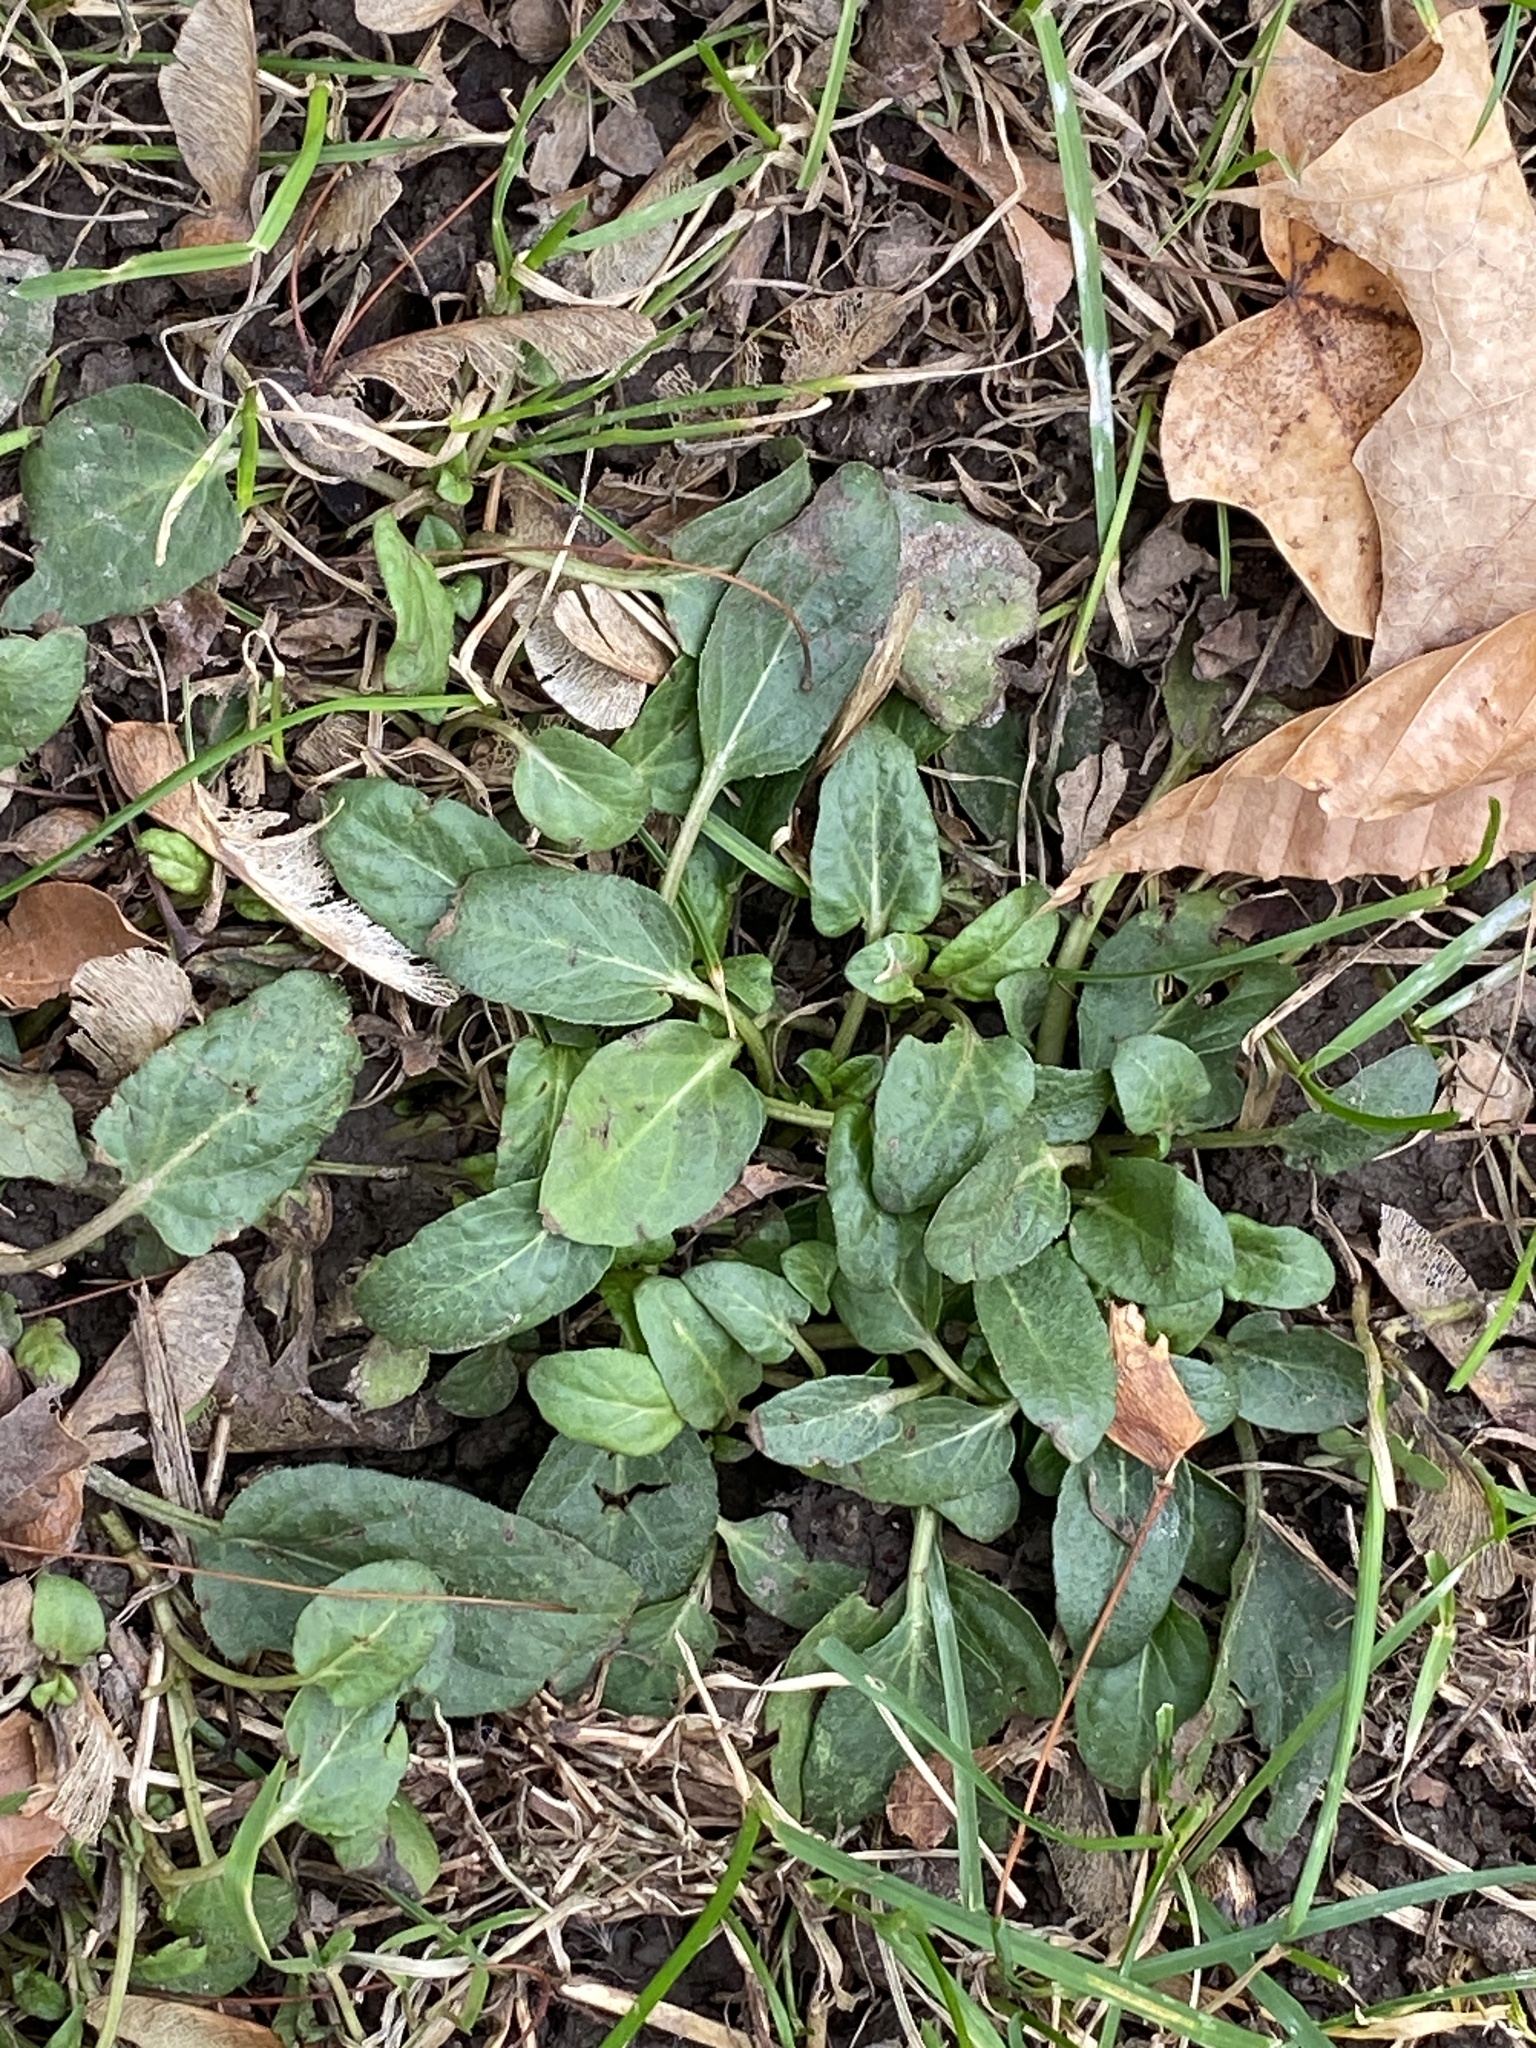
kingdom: Plantae
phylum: Tracheophyta
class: Magnoliopsida
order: Lamiales
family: Lamiaceae
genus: Prunella
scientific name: Prunella vulgaris
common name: Heal-all
